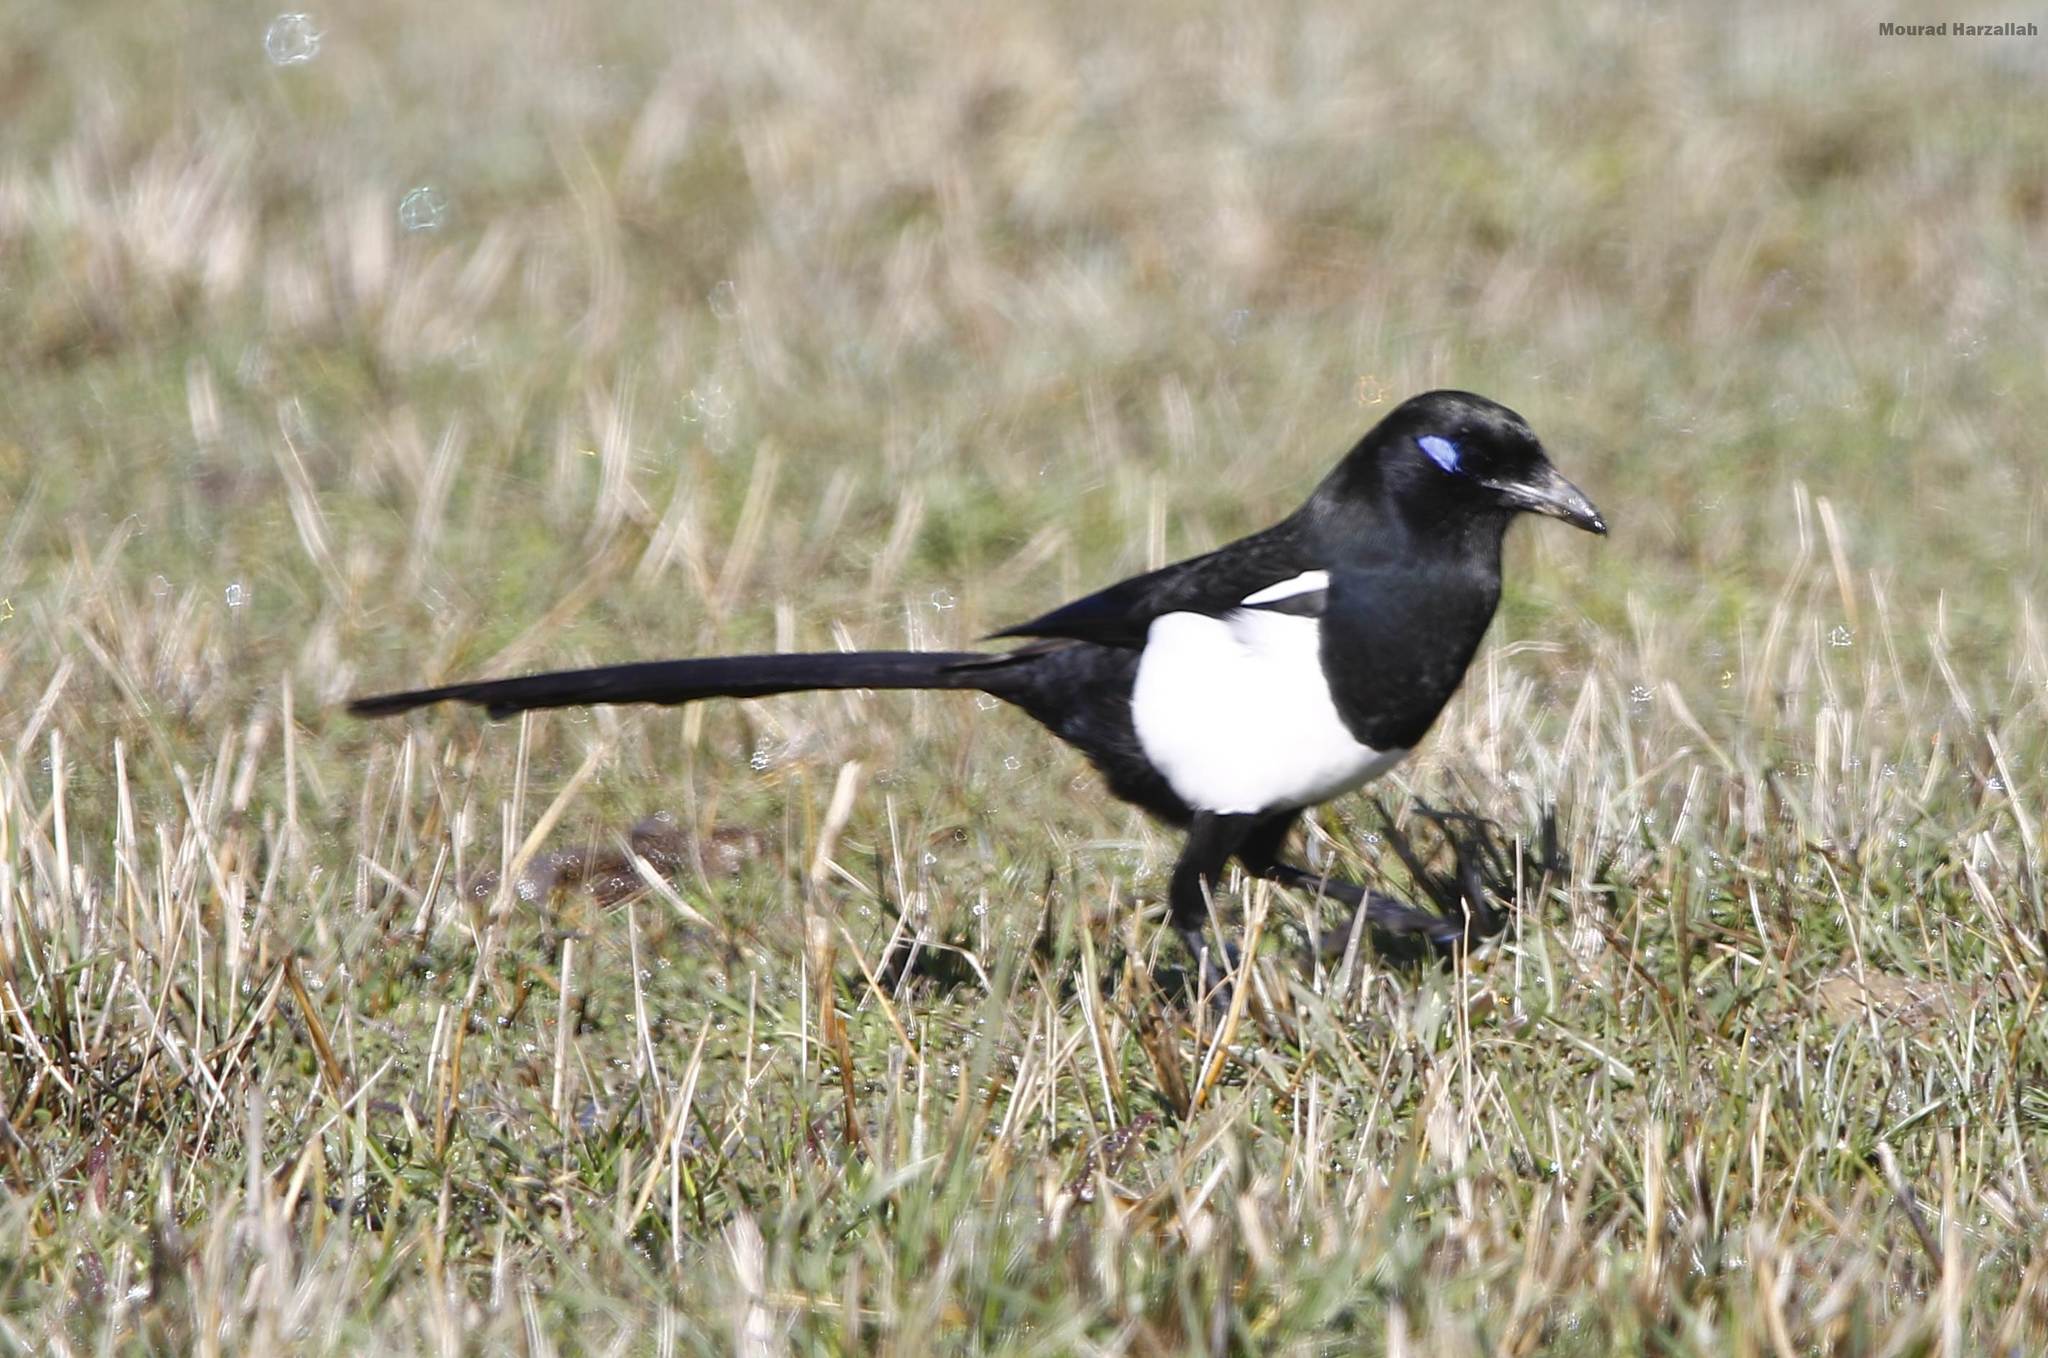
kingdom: Animalia
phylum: Chordata
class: Aves
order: Passeriformes
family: Corvidae
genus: Pica
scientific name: Pica mauritanica
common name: Maghreb magpie
